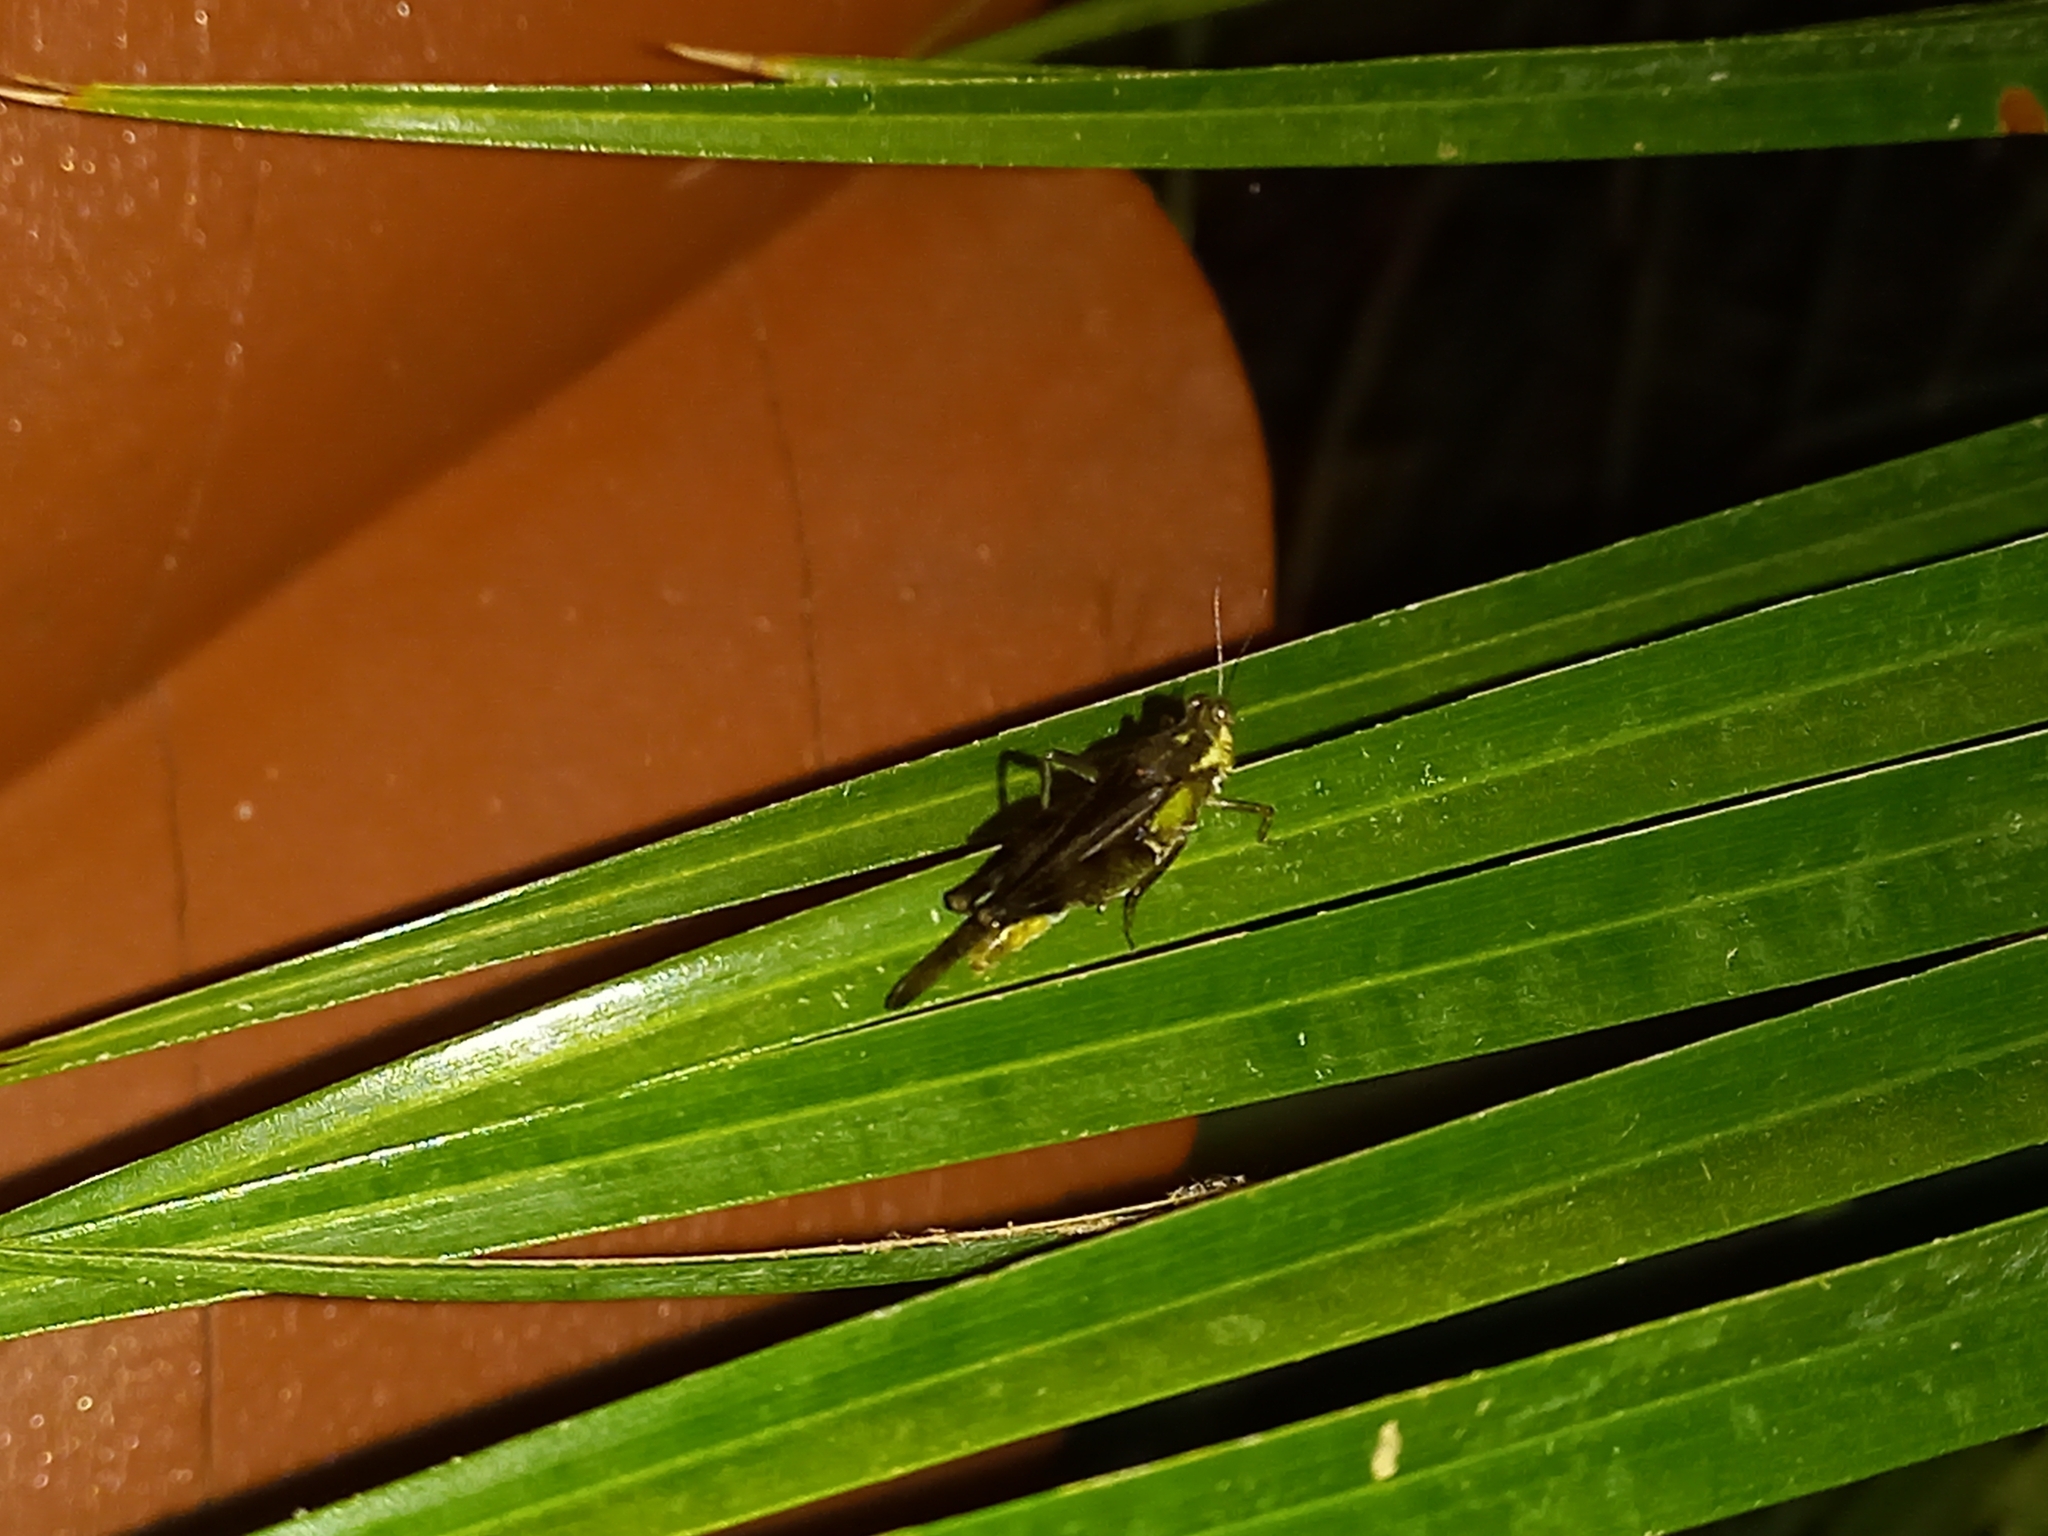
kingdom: Animalia
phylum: Arthropoda
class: Insecta
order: Orthoptera
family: Acrididae
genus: Paulinia
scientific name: Paulinia acuminata
